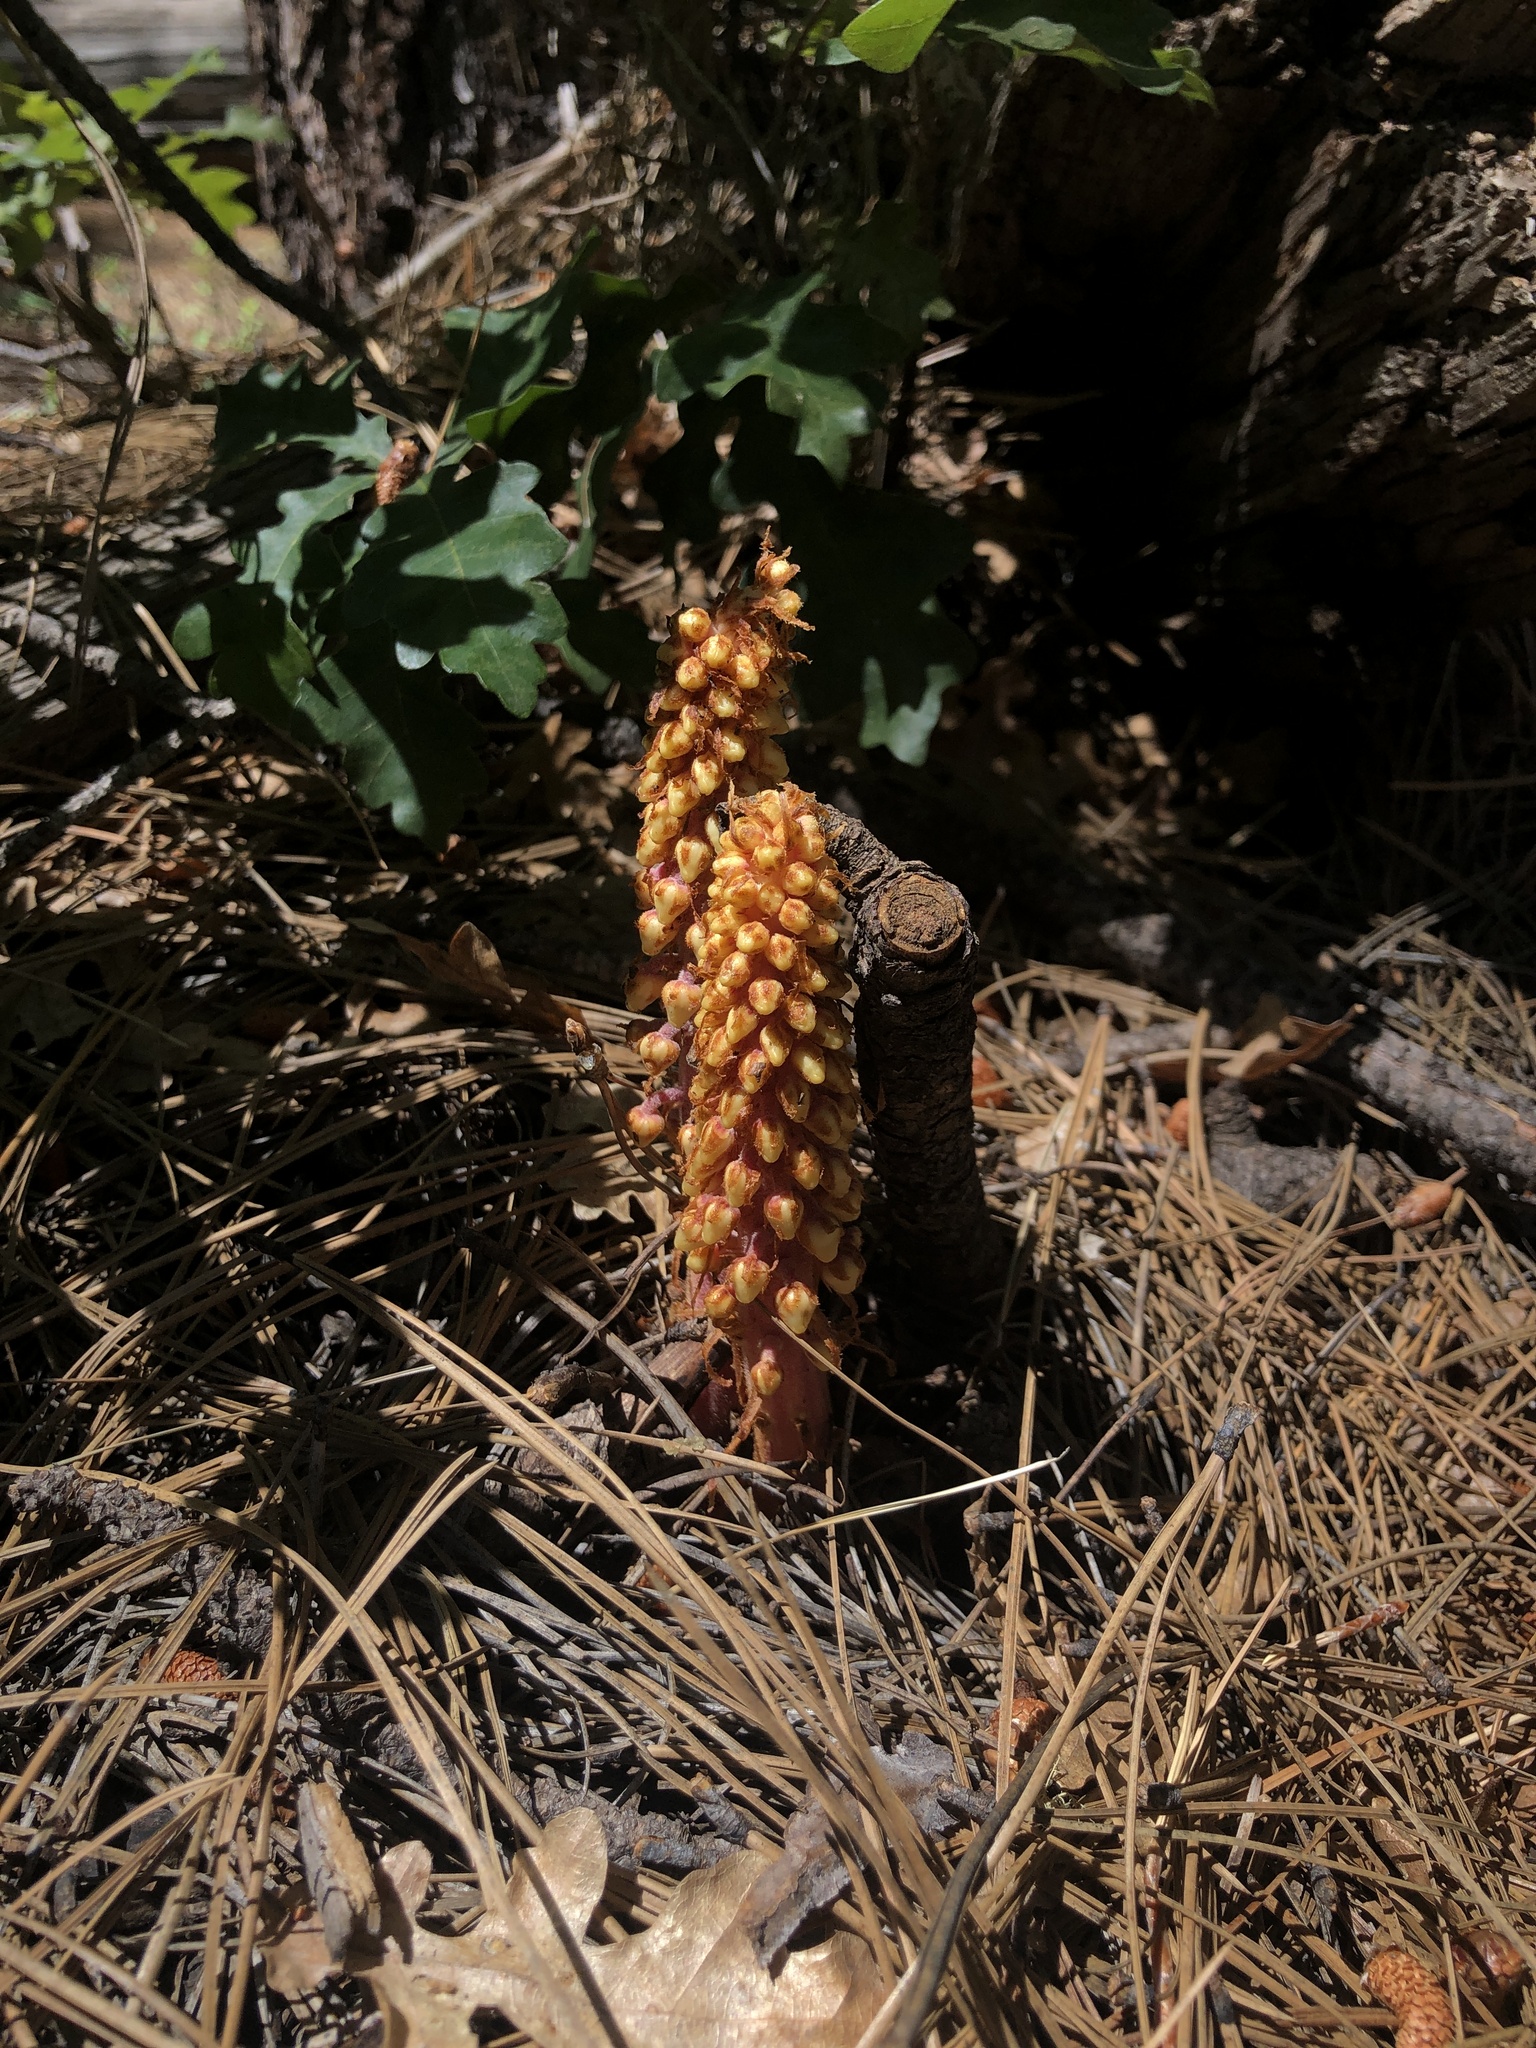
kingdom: Plantae
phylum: Tracheophyta
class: Magnoliopsida
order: Ericales
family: Ericaceae
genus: Pterospora
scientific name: Pterospora andromedea
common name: Giant bird's-nest
